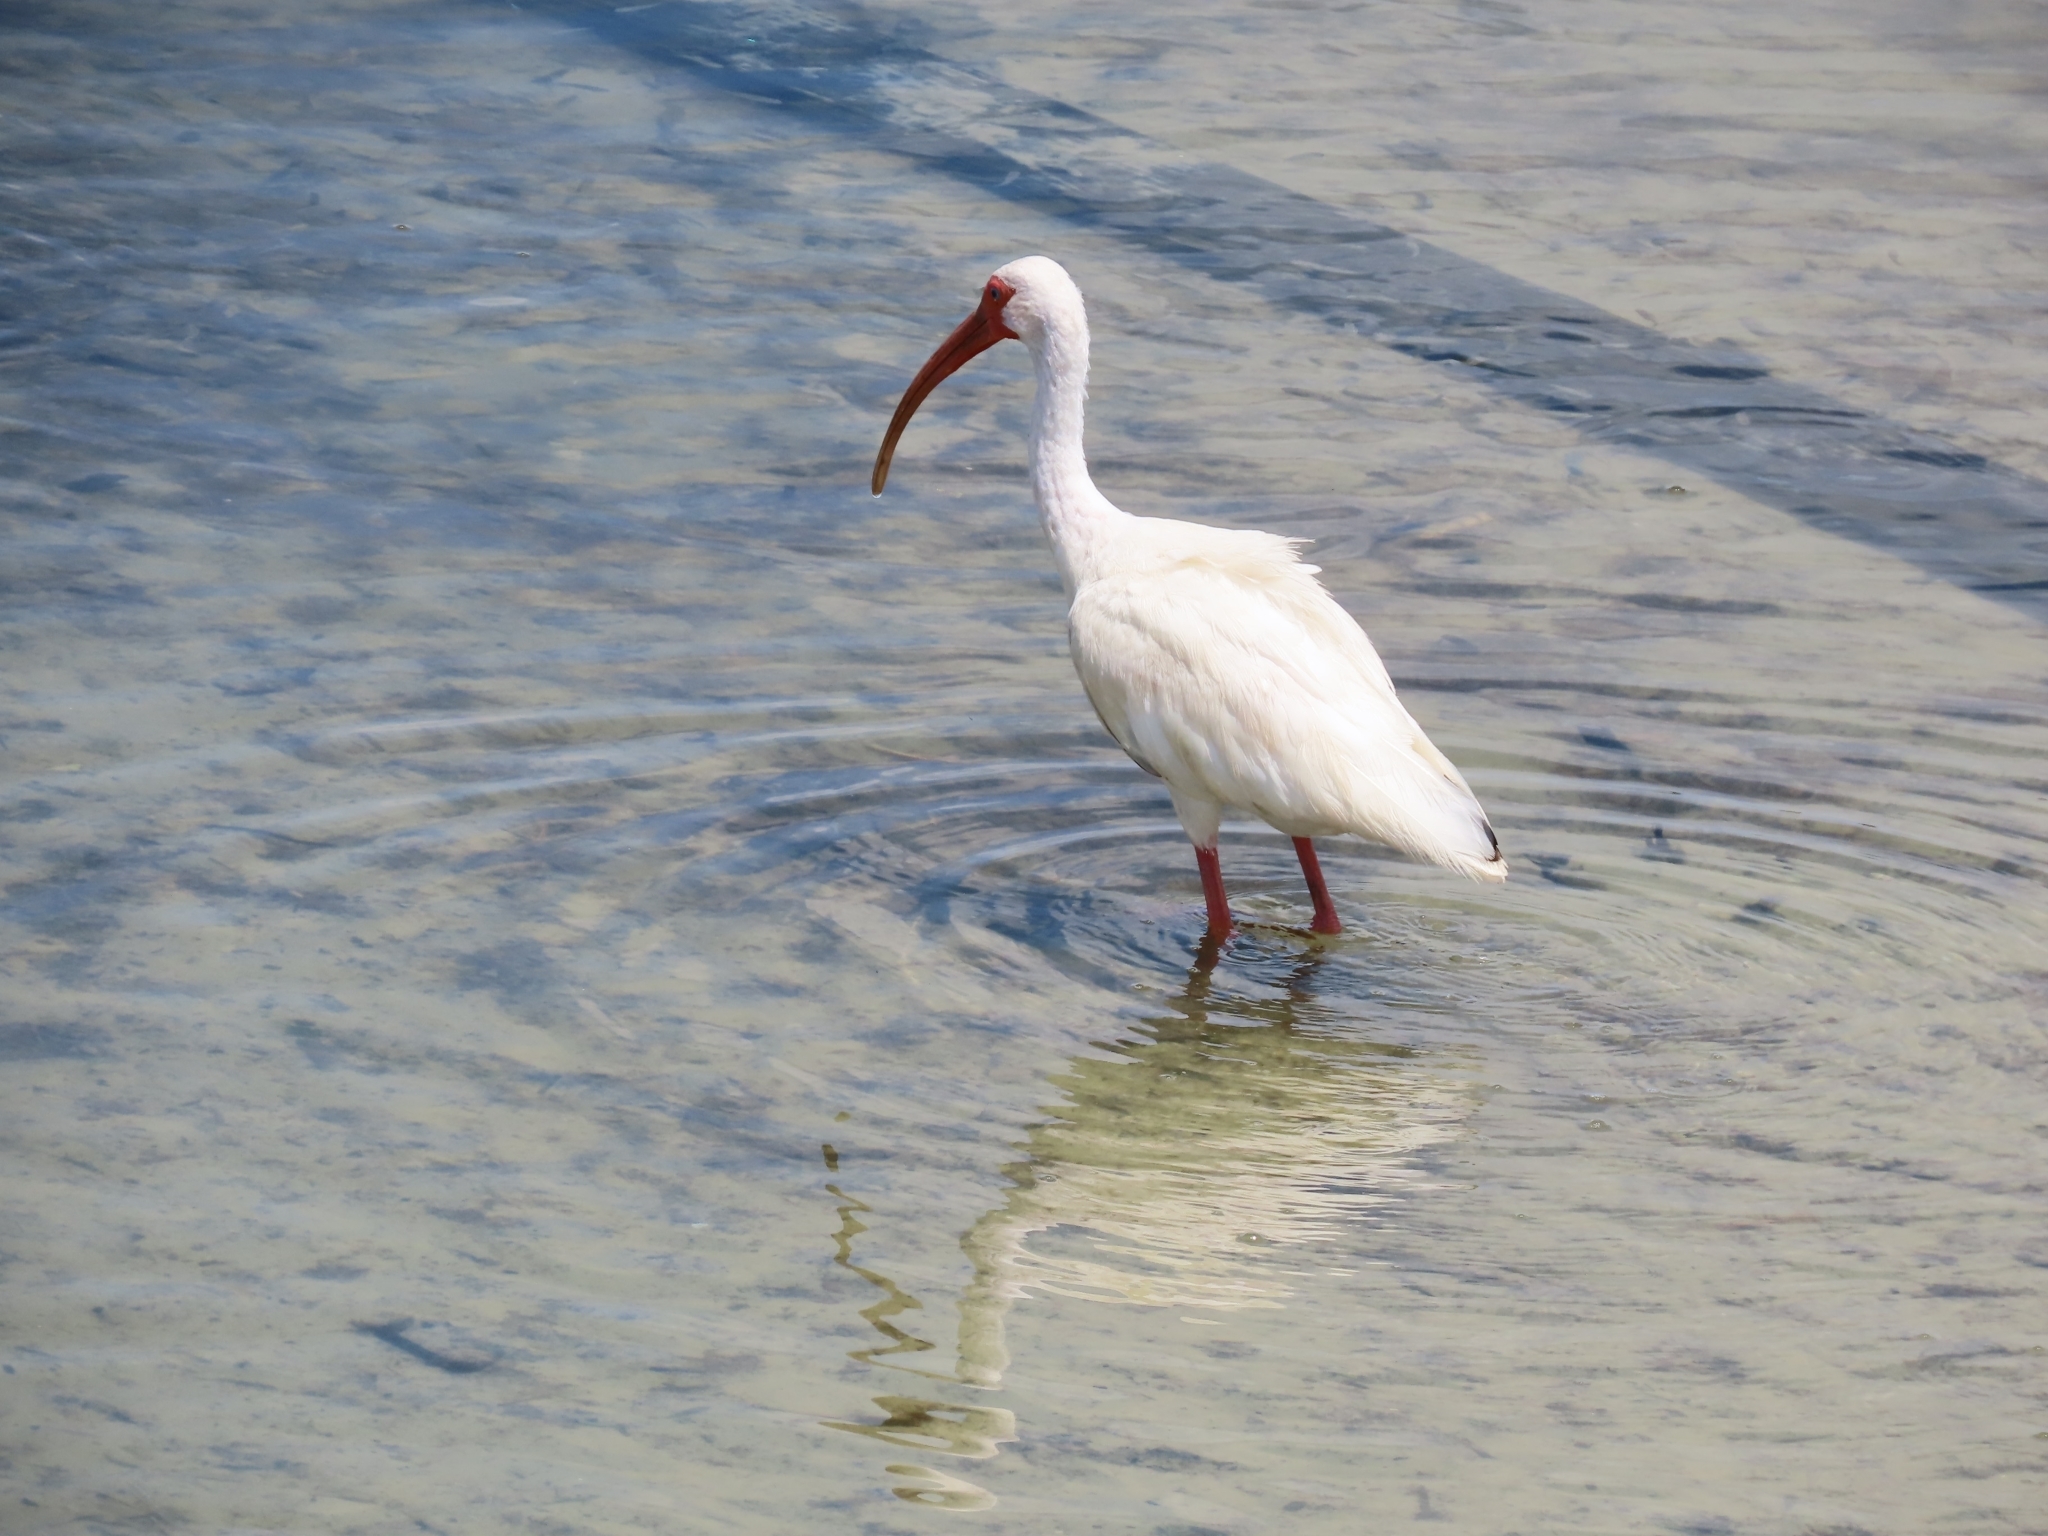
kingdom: Animalia
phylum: Chordata
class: Aves
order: Pelecaniformes
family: Threskiornithidae
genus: Eudocimus
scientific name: Eudocimus albus
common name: White ibis
